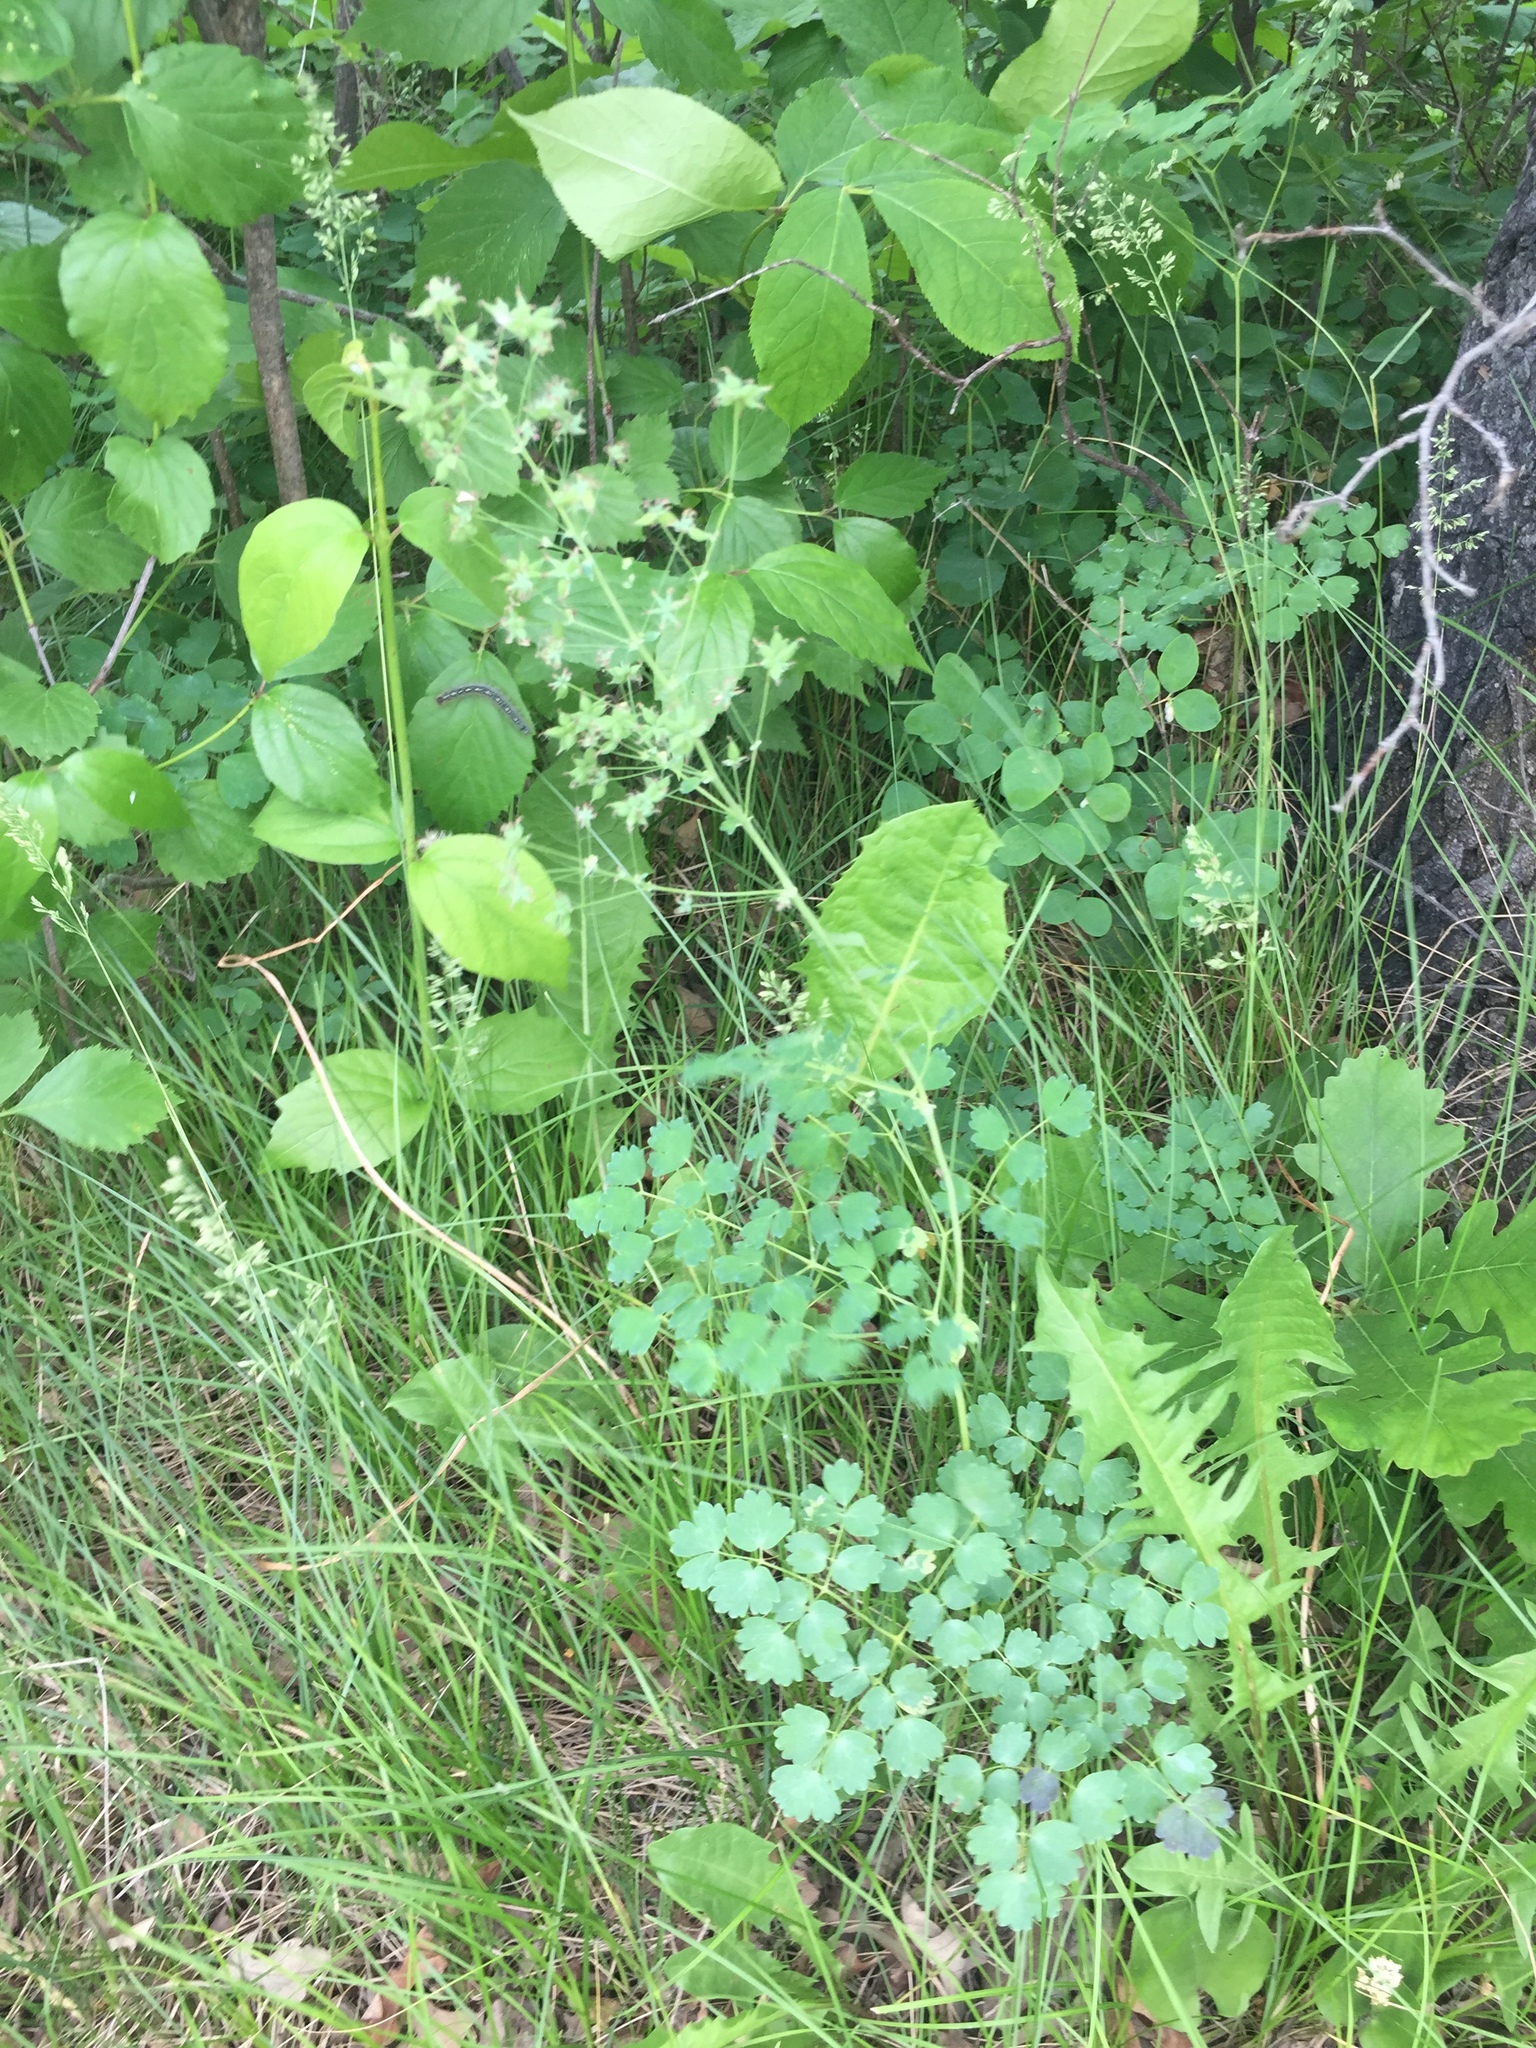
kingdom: Plantae
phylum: Tracheophyta
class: Magnoliopsida
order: Ranunculales
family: Ranunculaceae
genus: Thalictrum
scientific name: Thalictrum venulosum
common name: Early meadow-rue
